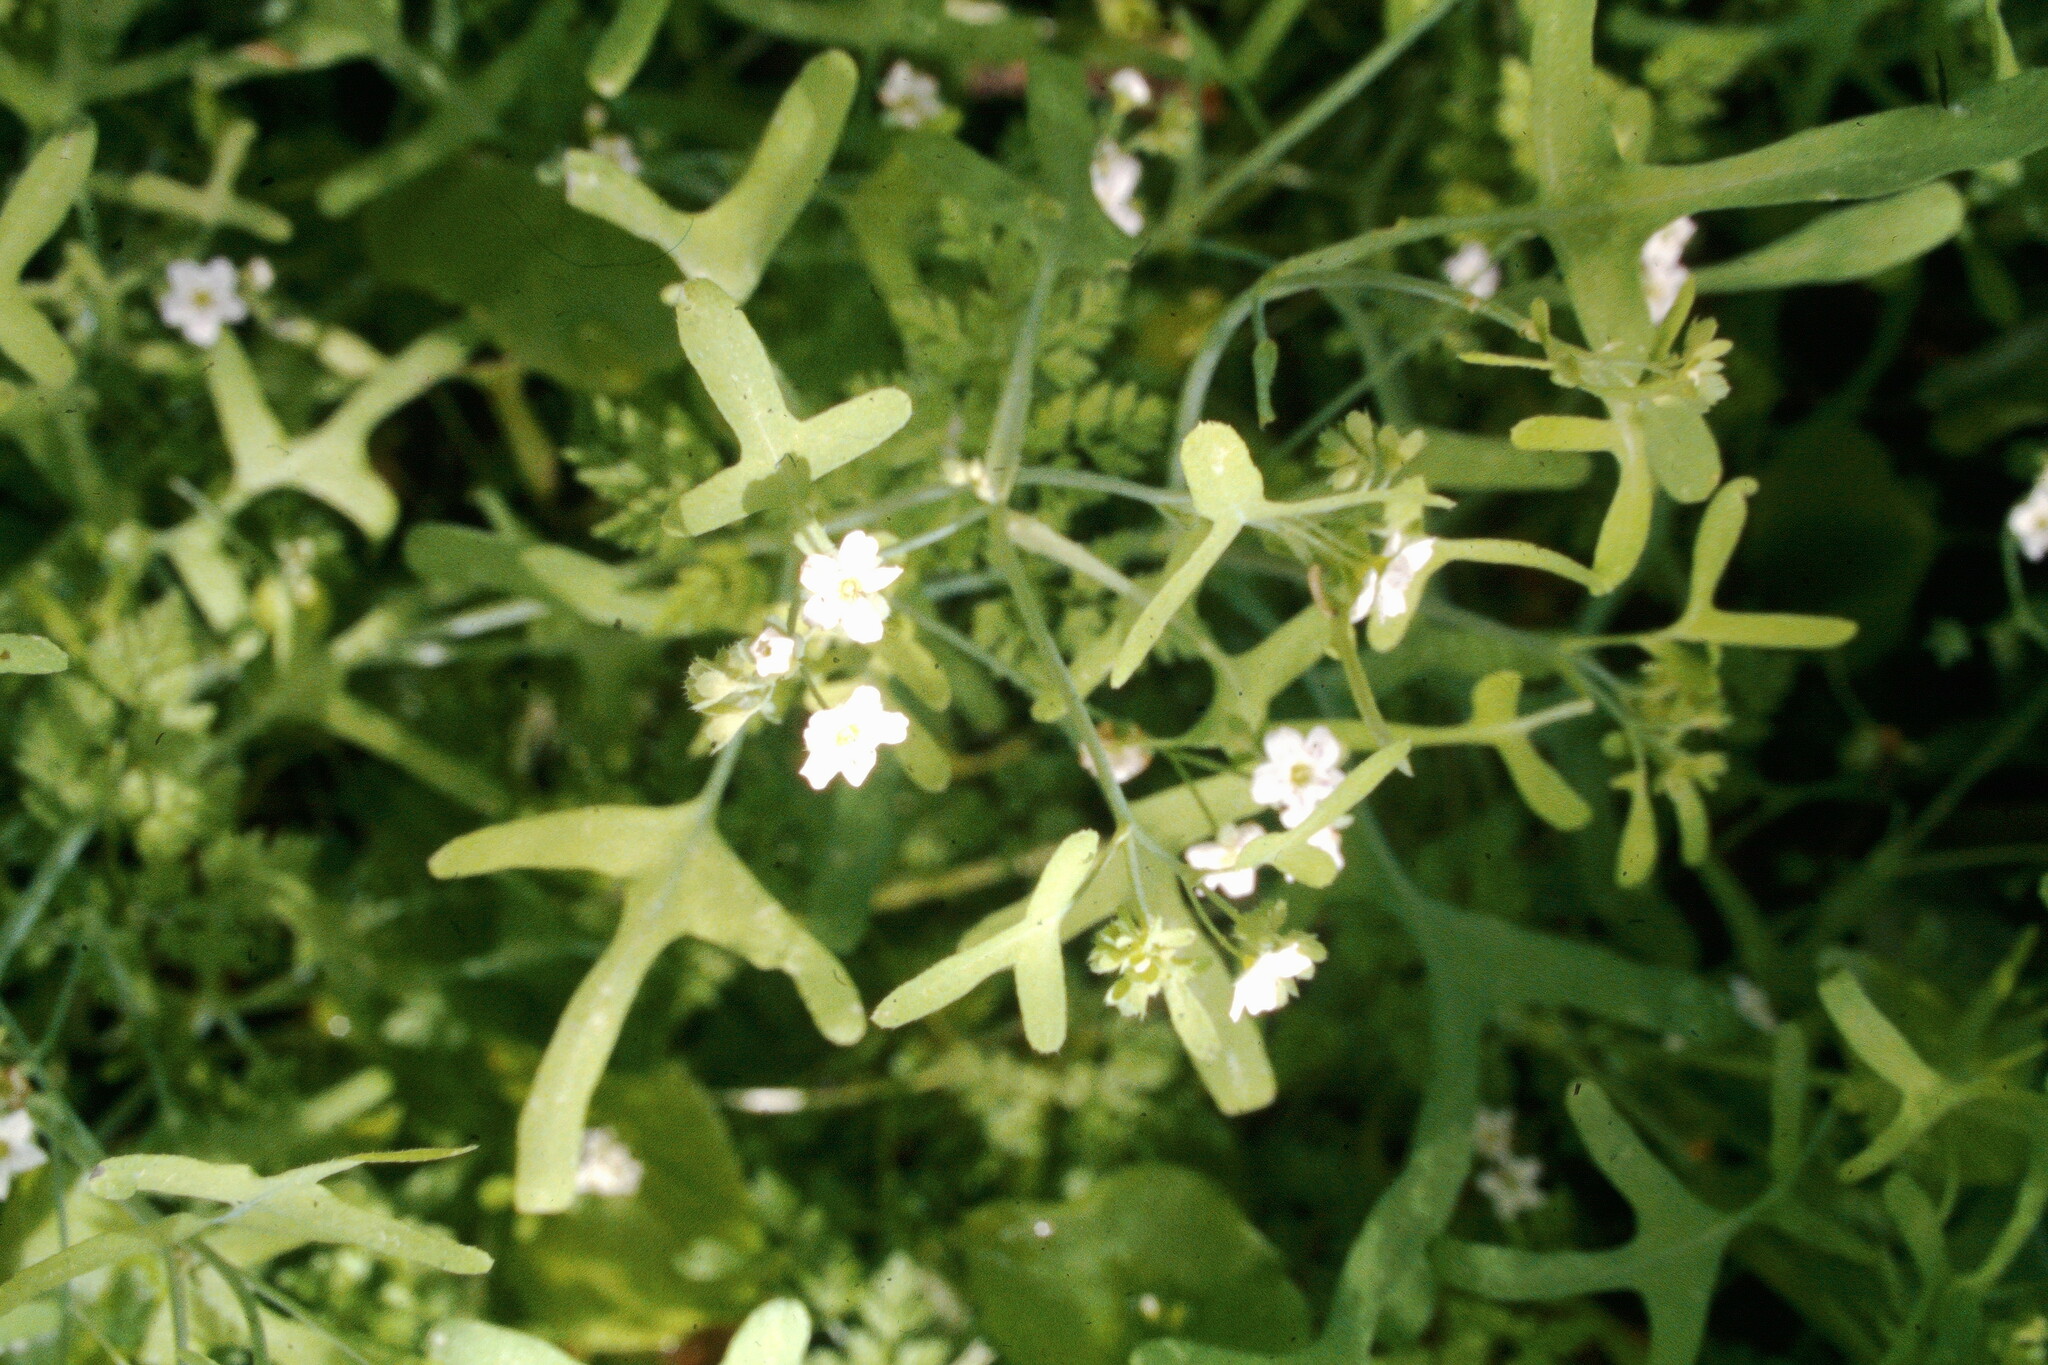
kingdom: Plantae
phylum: Tracheophyta
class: Magnoliopsida
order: Boraginales
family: Hydrophyllaceae
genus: Pholistoma
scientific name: Pholistoma membranaceum
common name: White fiesta-flower
